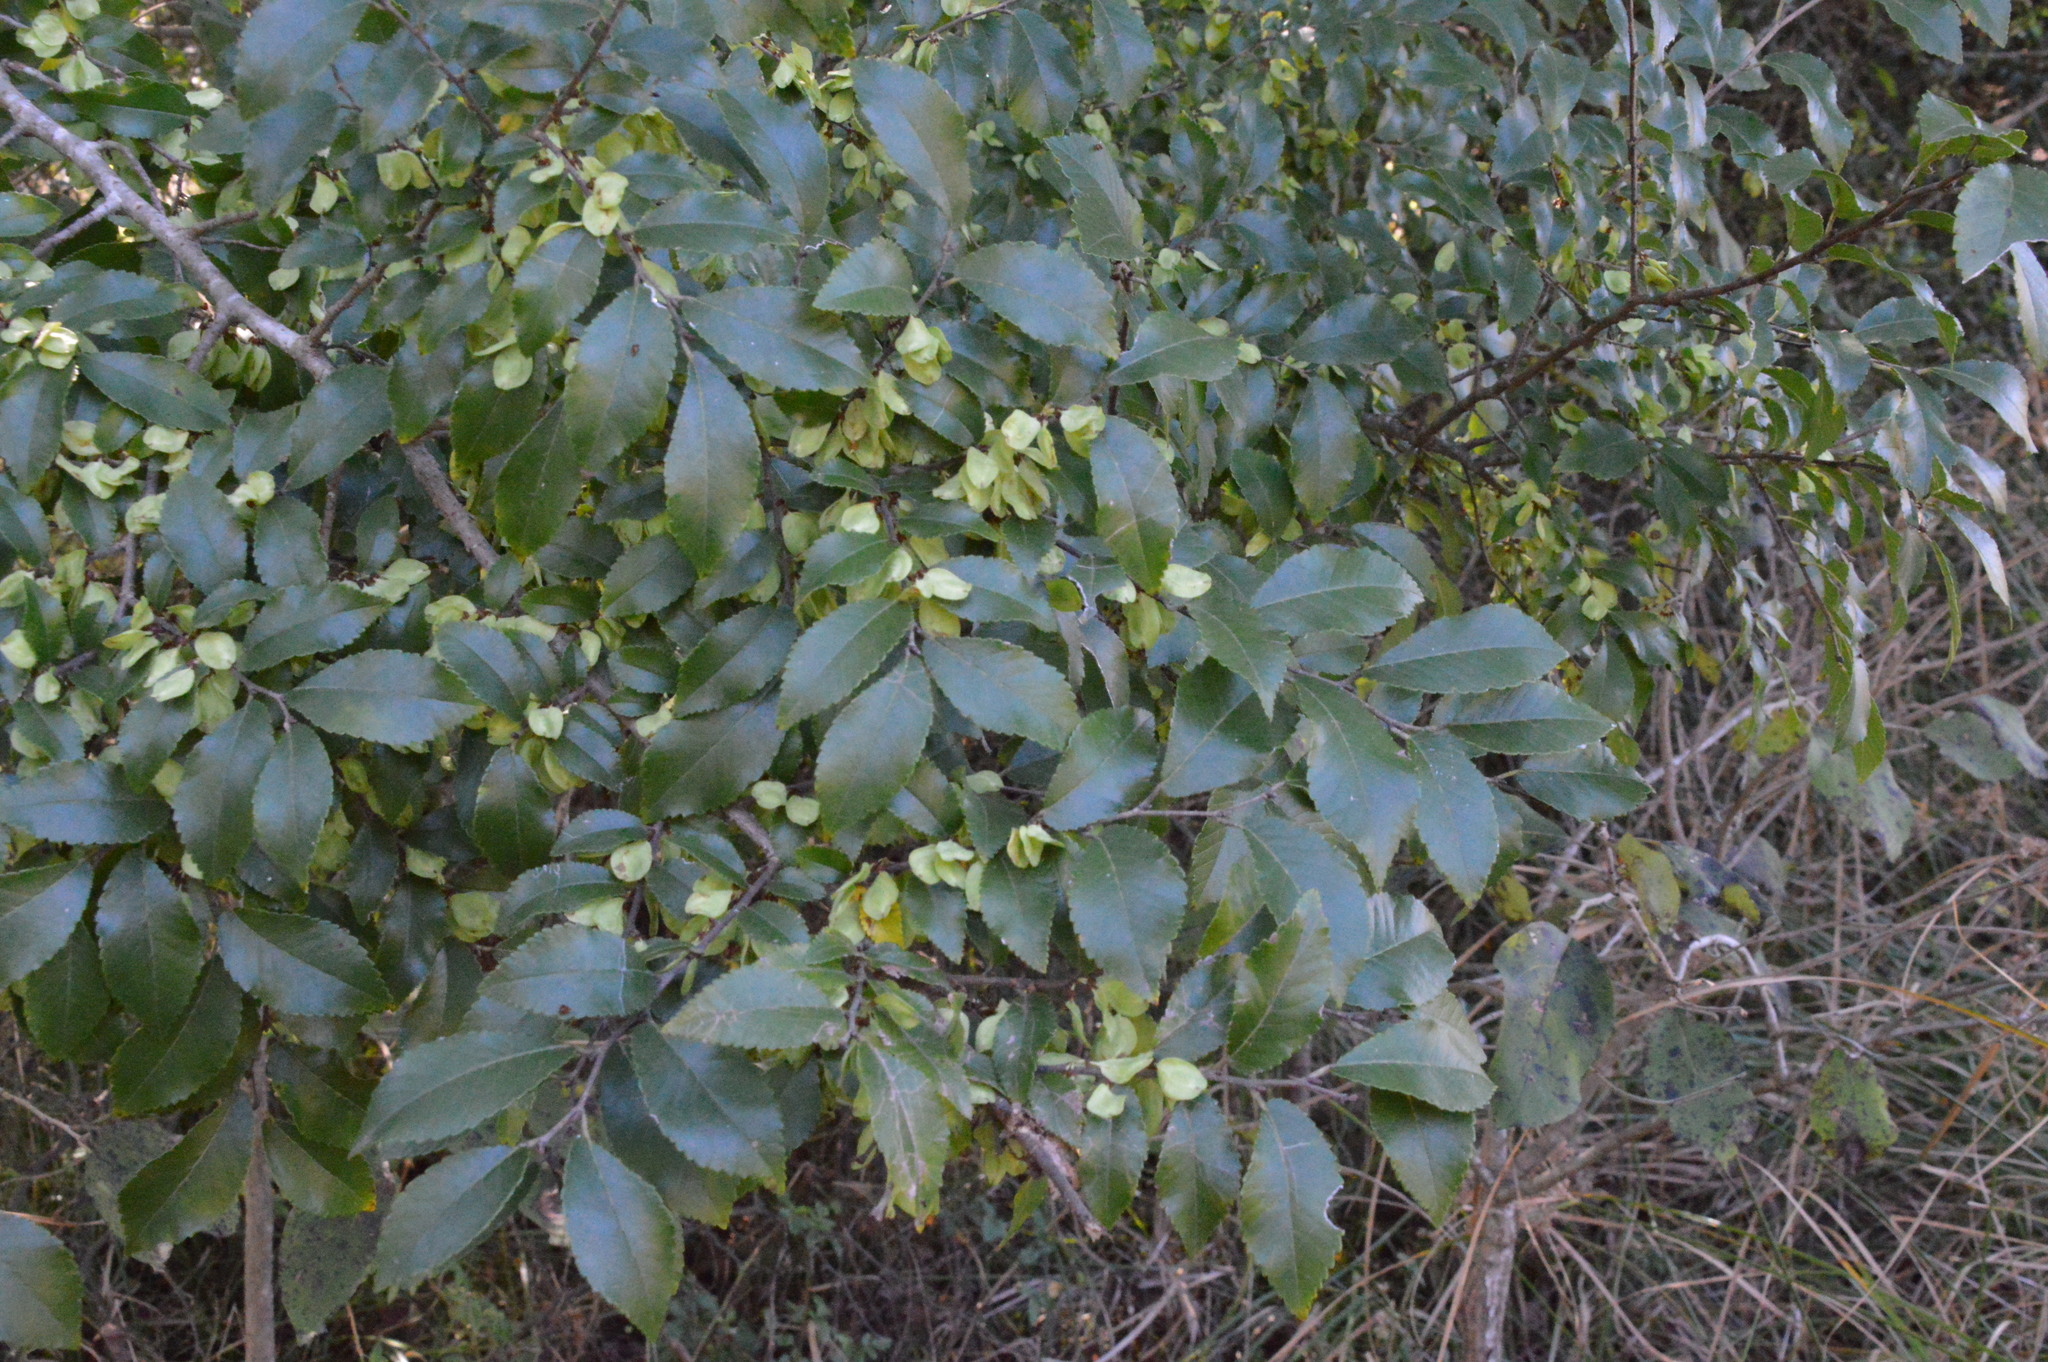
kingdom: Plantae
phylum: Tracheophyta
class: Magnoliopsida
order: Rosales
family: Ulmaceae
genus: Ulmus
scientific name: Ulmus parvifolia
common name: Chinese elm
